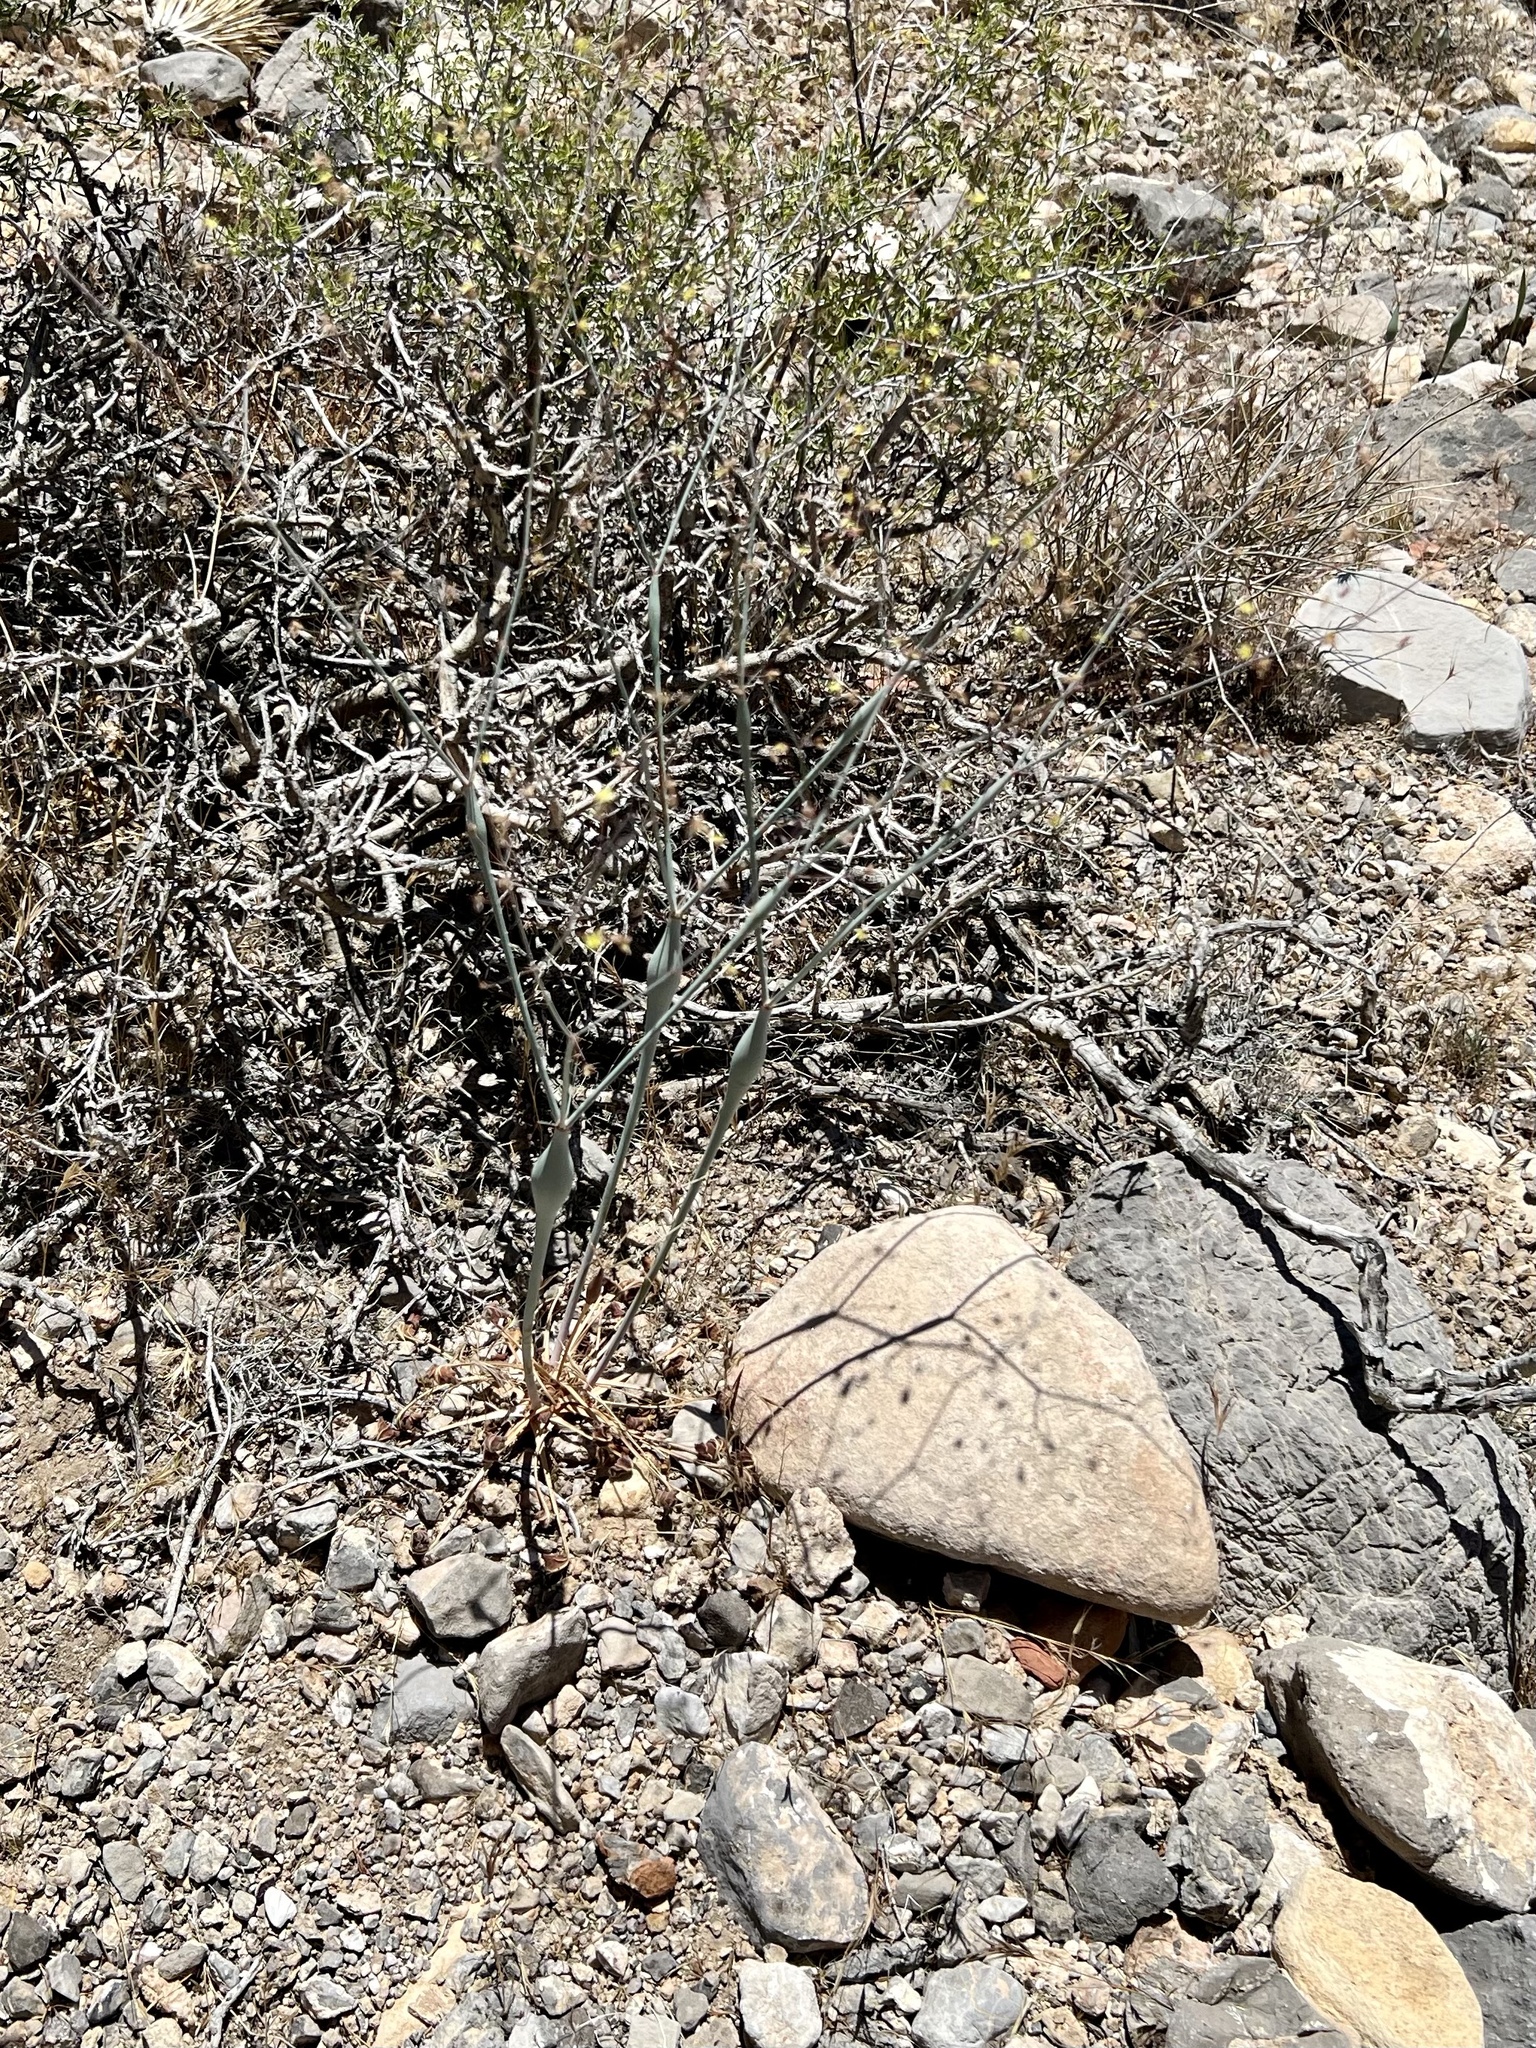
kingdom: Plantae
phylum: Tracheophyta
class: Magnoliopsida
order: Caryophyllales
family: Polygonaceae
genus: Eriogonum
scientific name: Eriogonum inflatum
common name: Desert trumpet
